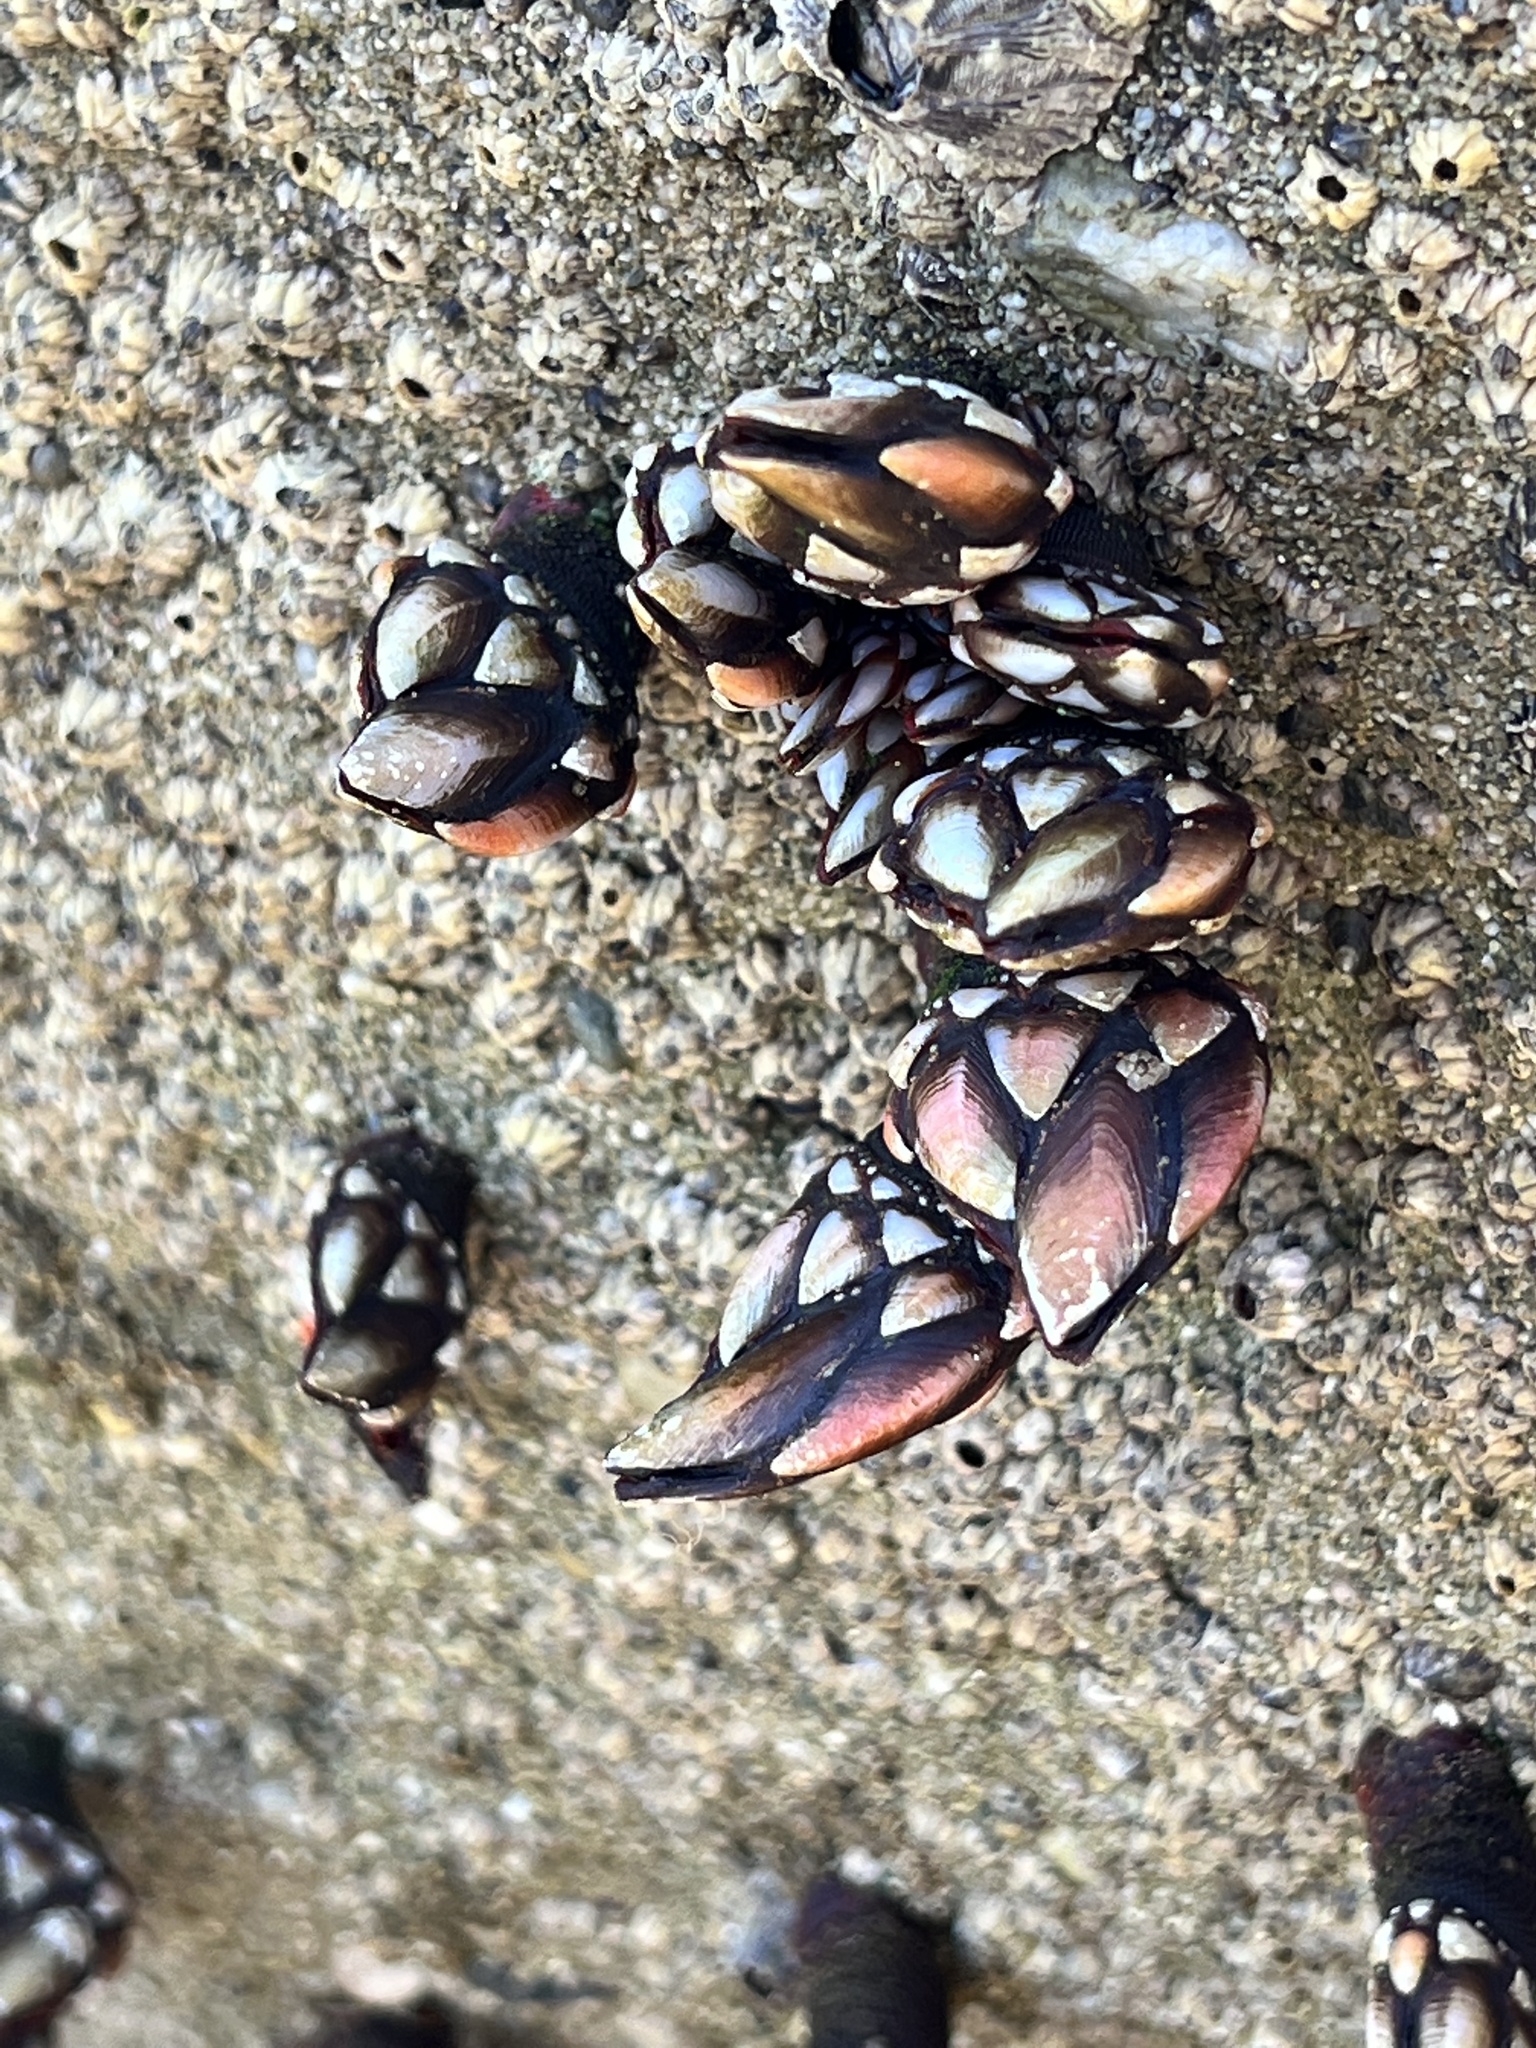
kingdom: Animalia
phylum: Arthropoda
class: Maxillopoda
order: Pedunculata
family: Pollicipedidae
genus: Pollicipes
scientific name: Pollicipes elegans
